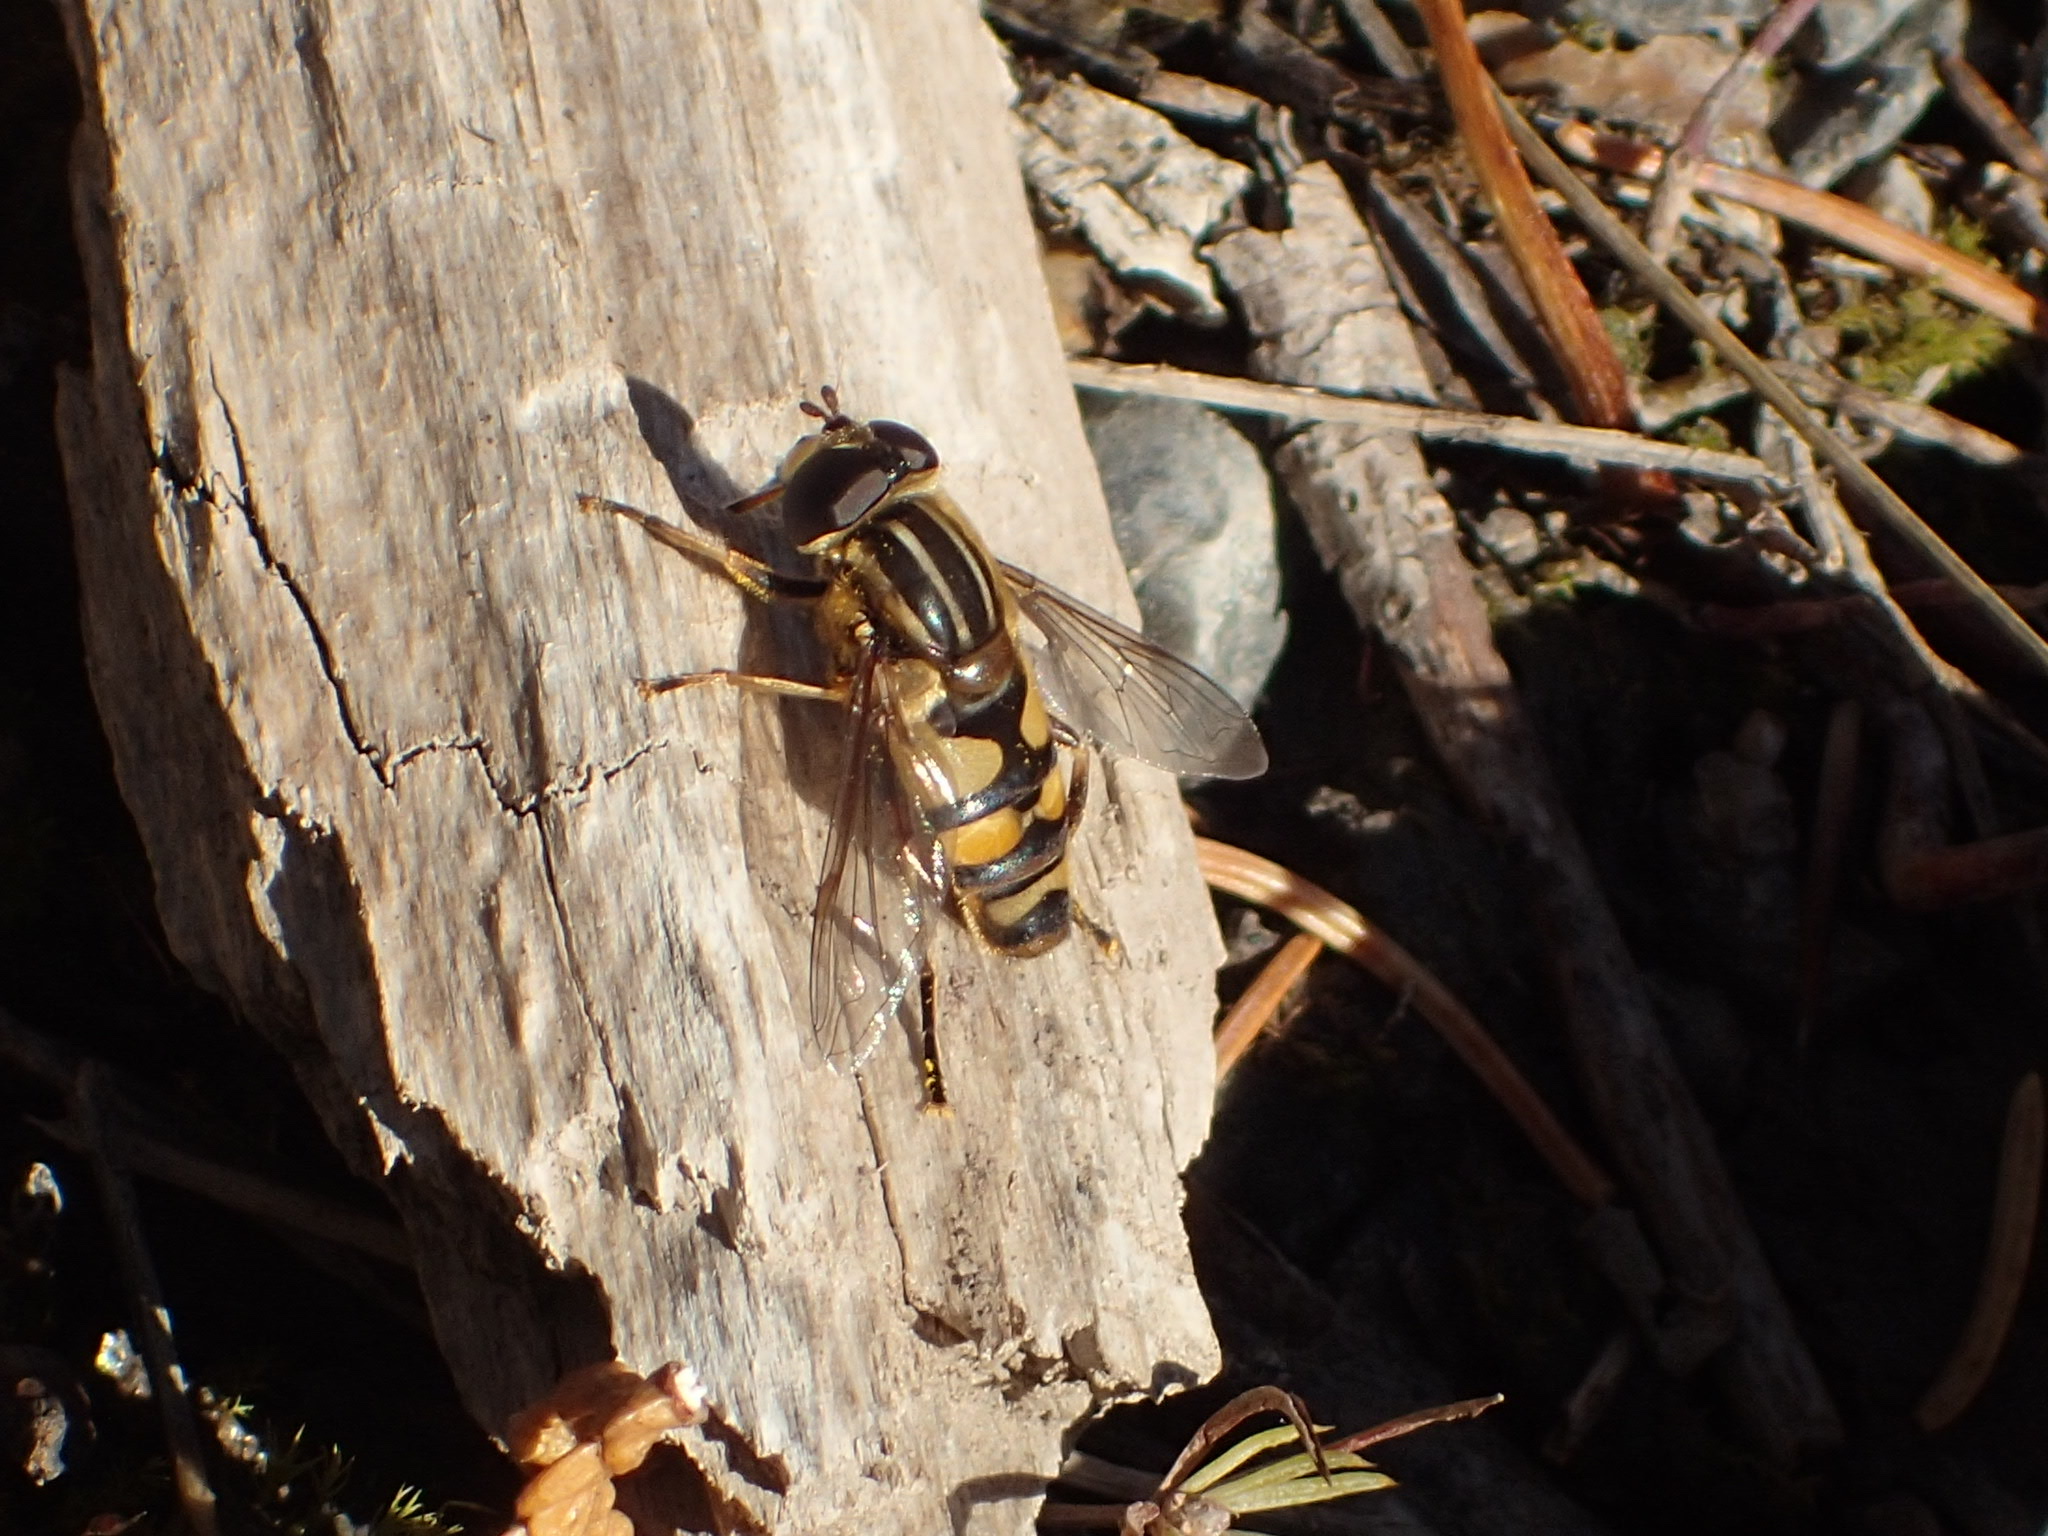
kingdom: Animalia
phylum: Arthropoda
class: Insecta
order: Diptera
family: Syrphidae
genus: Helophilus
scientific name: Helophilus fasciatus
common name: Narrow-headed marsh fly
